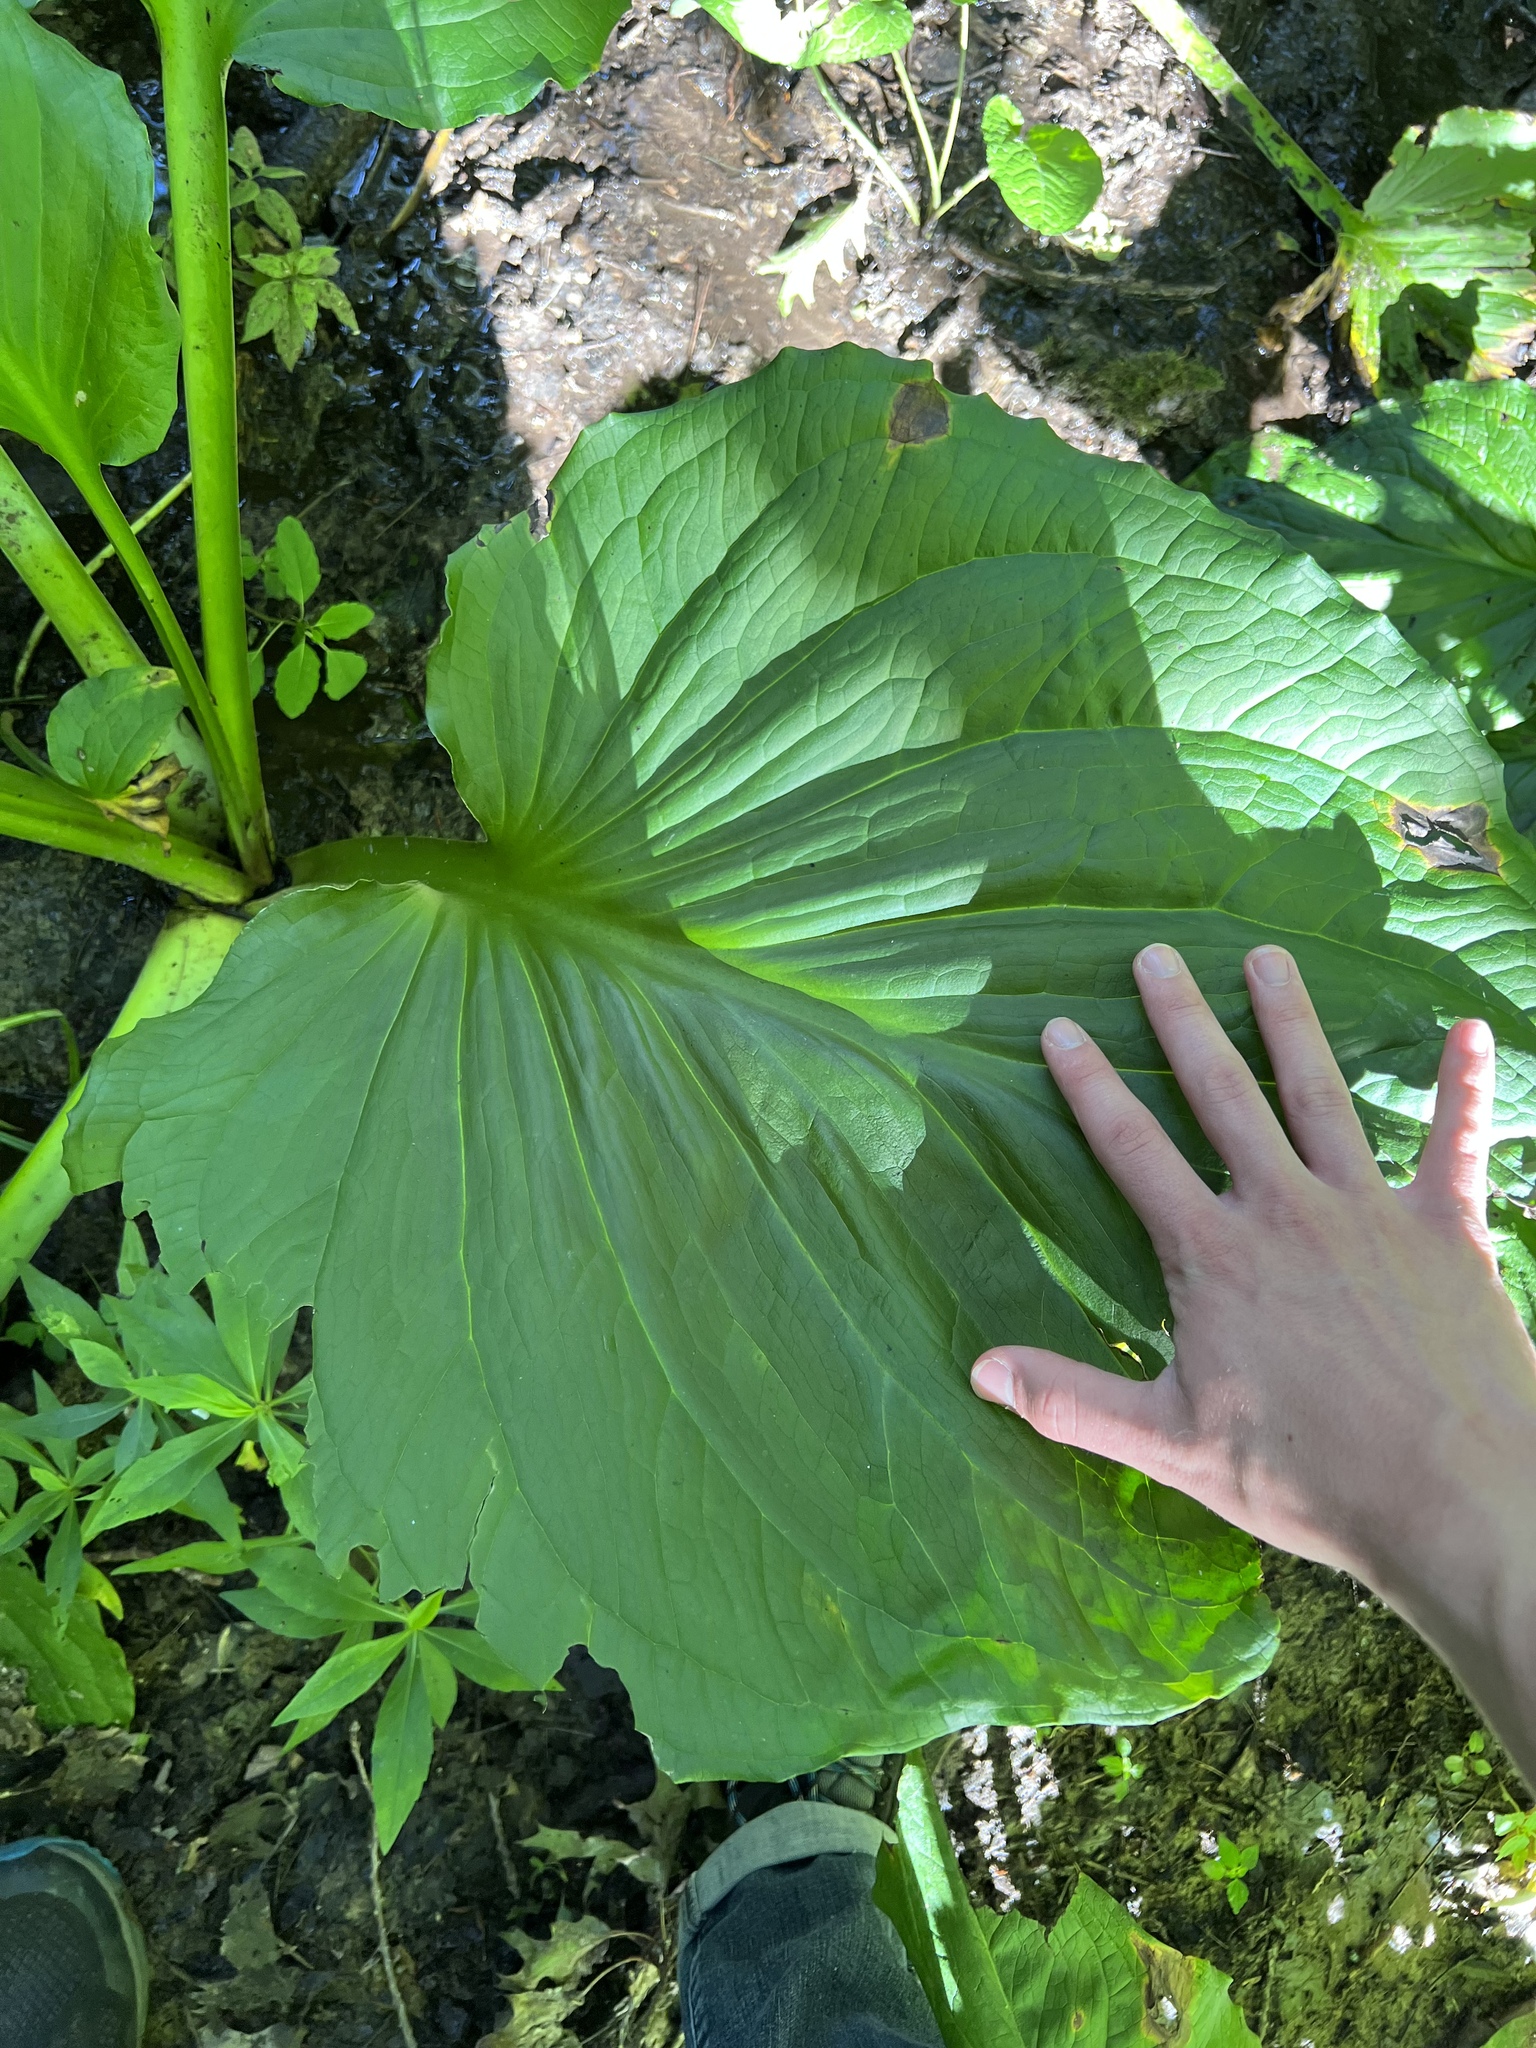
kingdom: Plantae
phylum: Tracheophyta
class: Liliopsida
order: Alismatales
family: Araceae
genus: Symplocarpus
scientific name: Symplocarpus foetidus
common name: Eastern skunk cabbage
